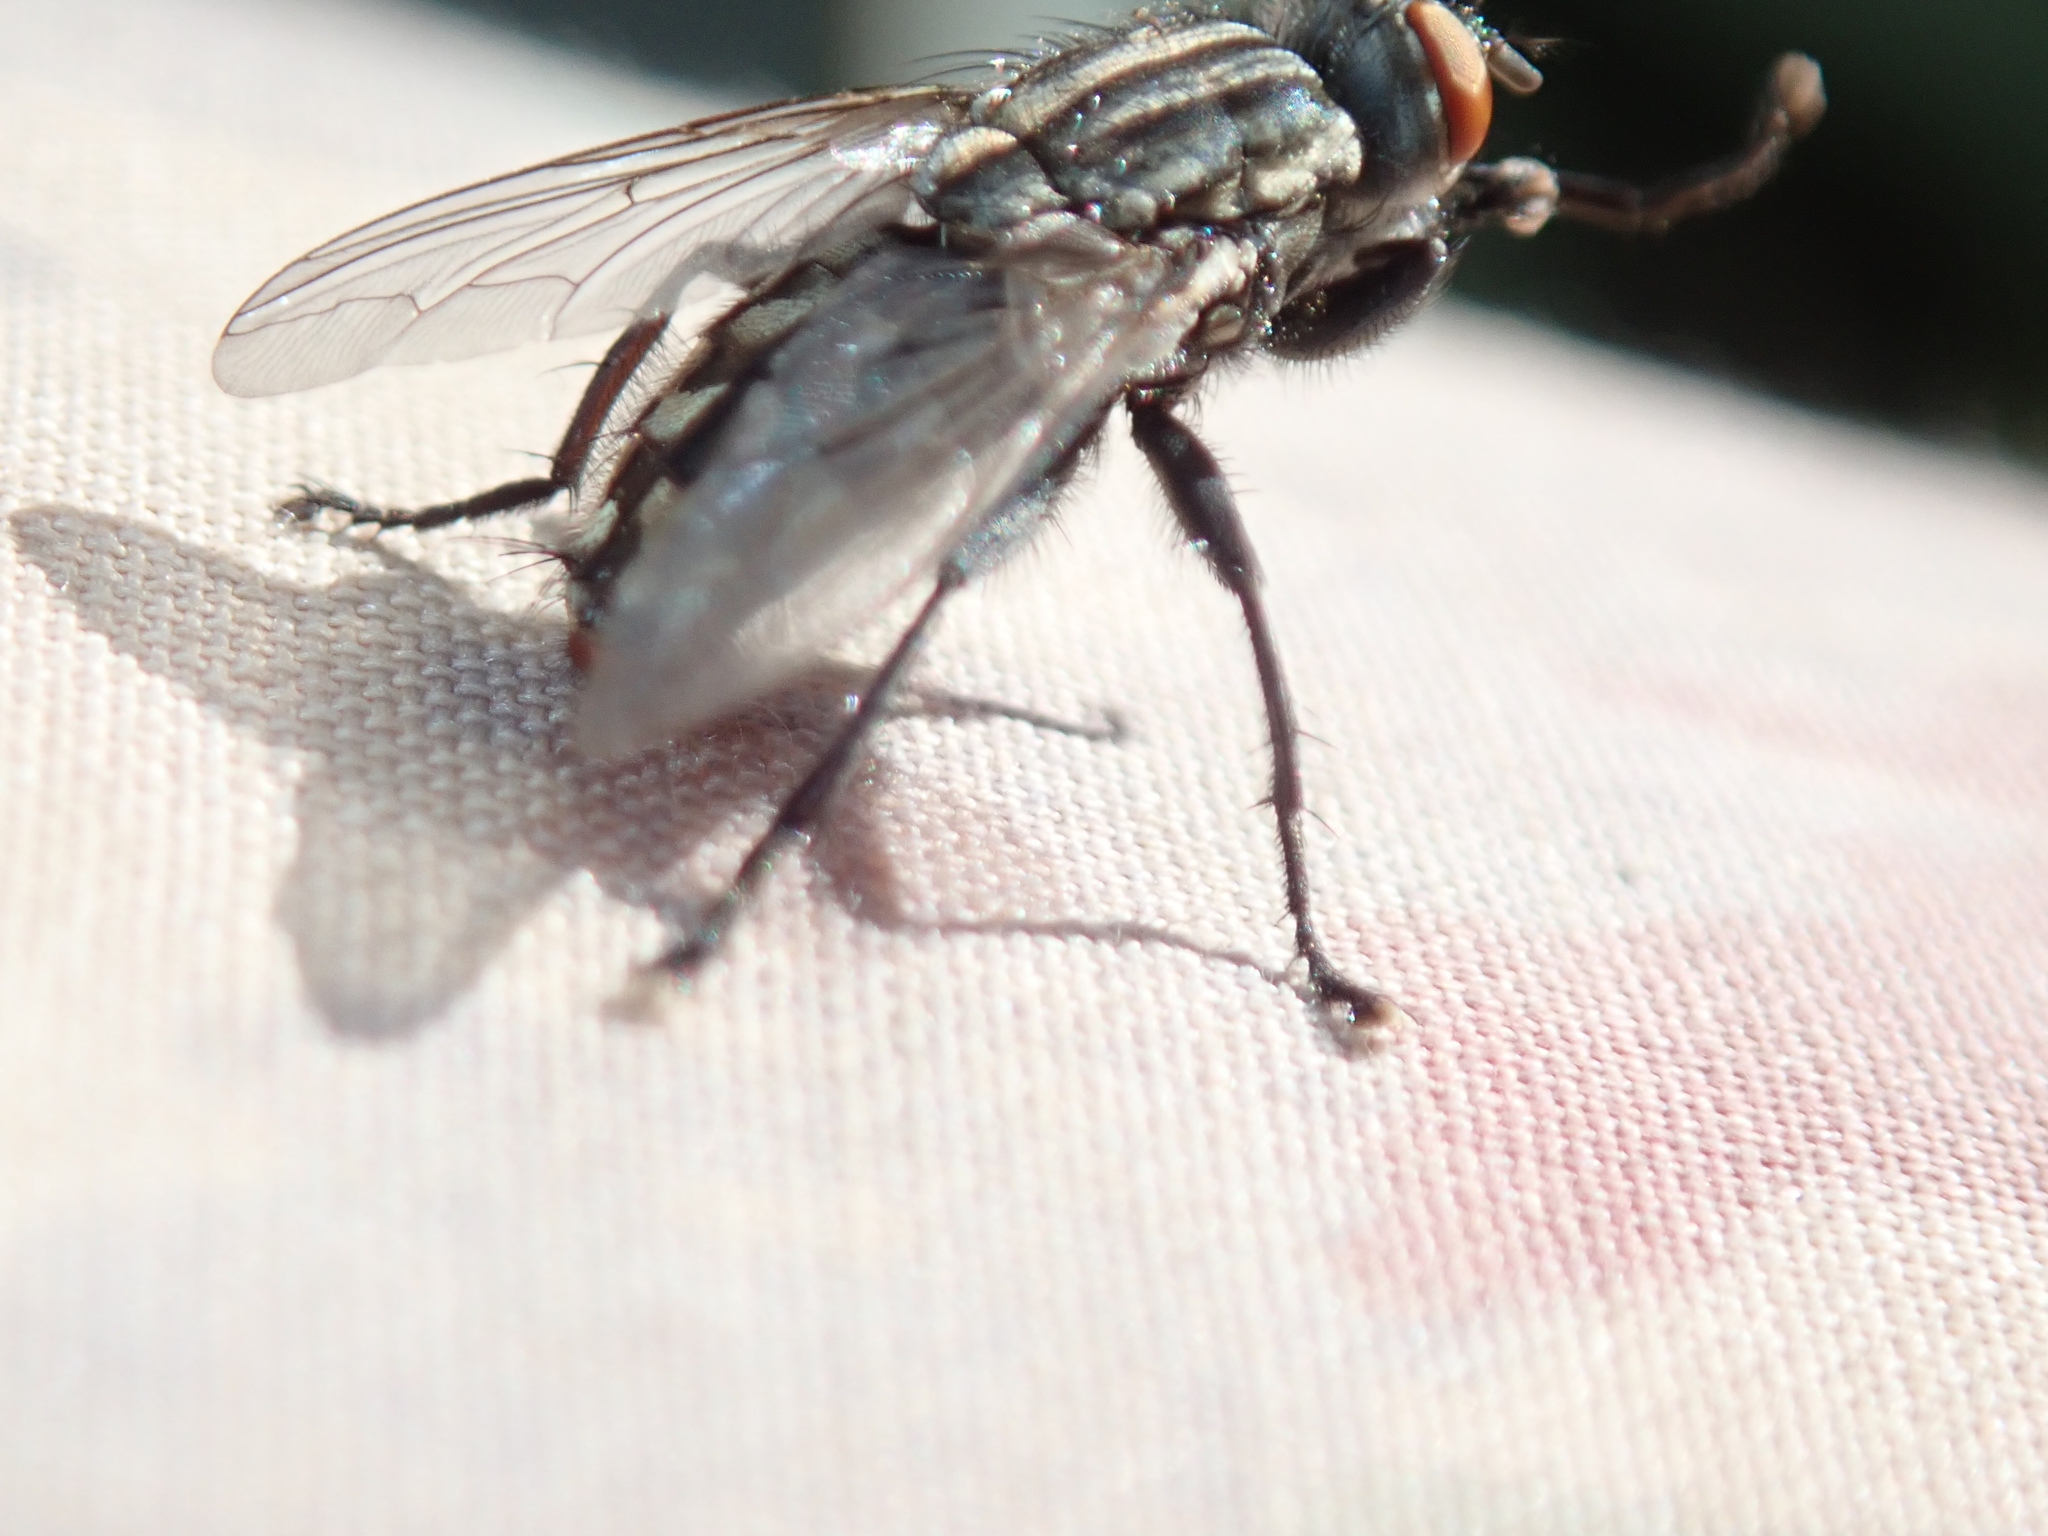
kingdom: Animalia
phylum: Arthropoda
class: Insecta
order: Diptera
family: Sarcophagidae
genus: Sarcophaga
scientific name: Sarcophaga crassipalpis
